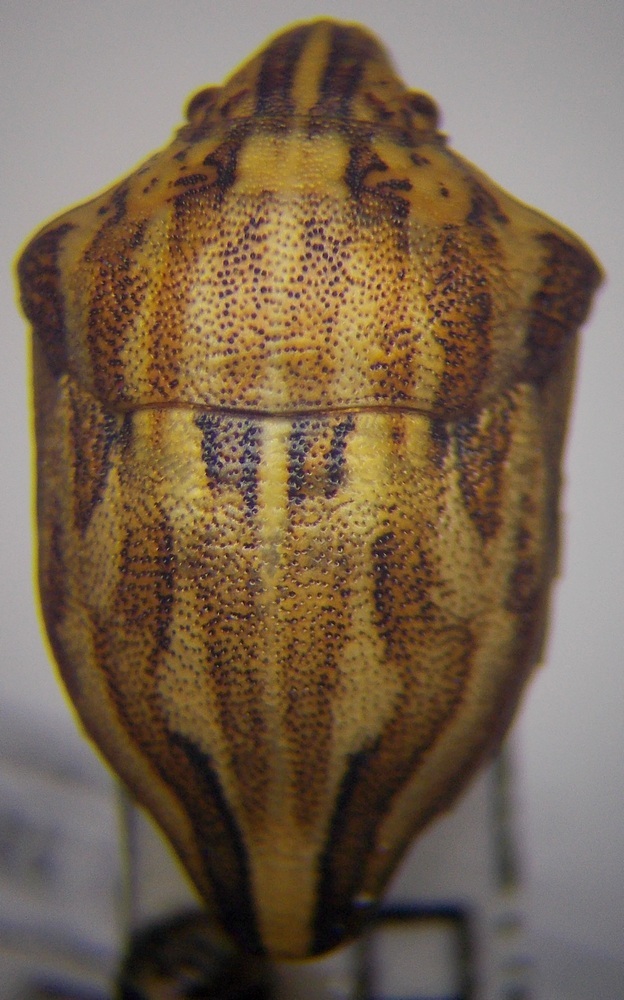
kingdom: Animalia
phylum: Arthropoda
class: Insecta
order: Hemiptera
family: Scutelleridae
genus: Odontotarsus
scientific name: Odontotarsus robustus
